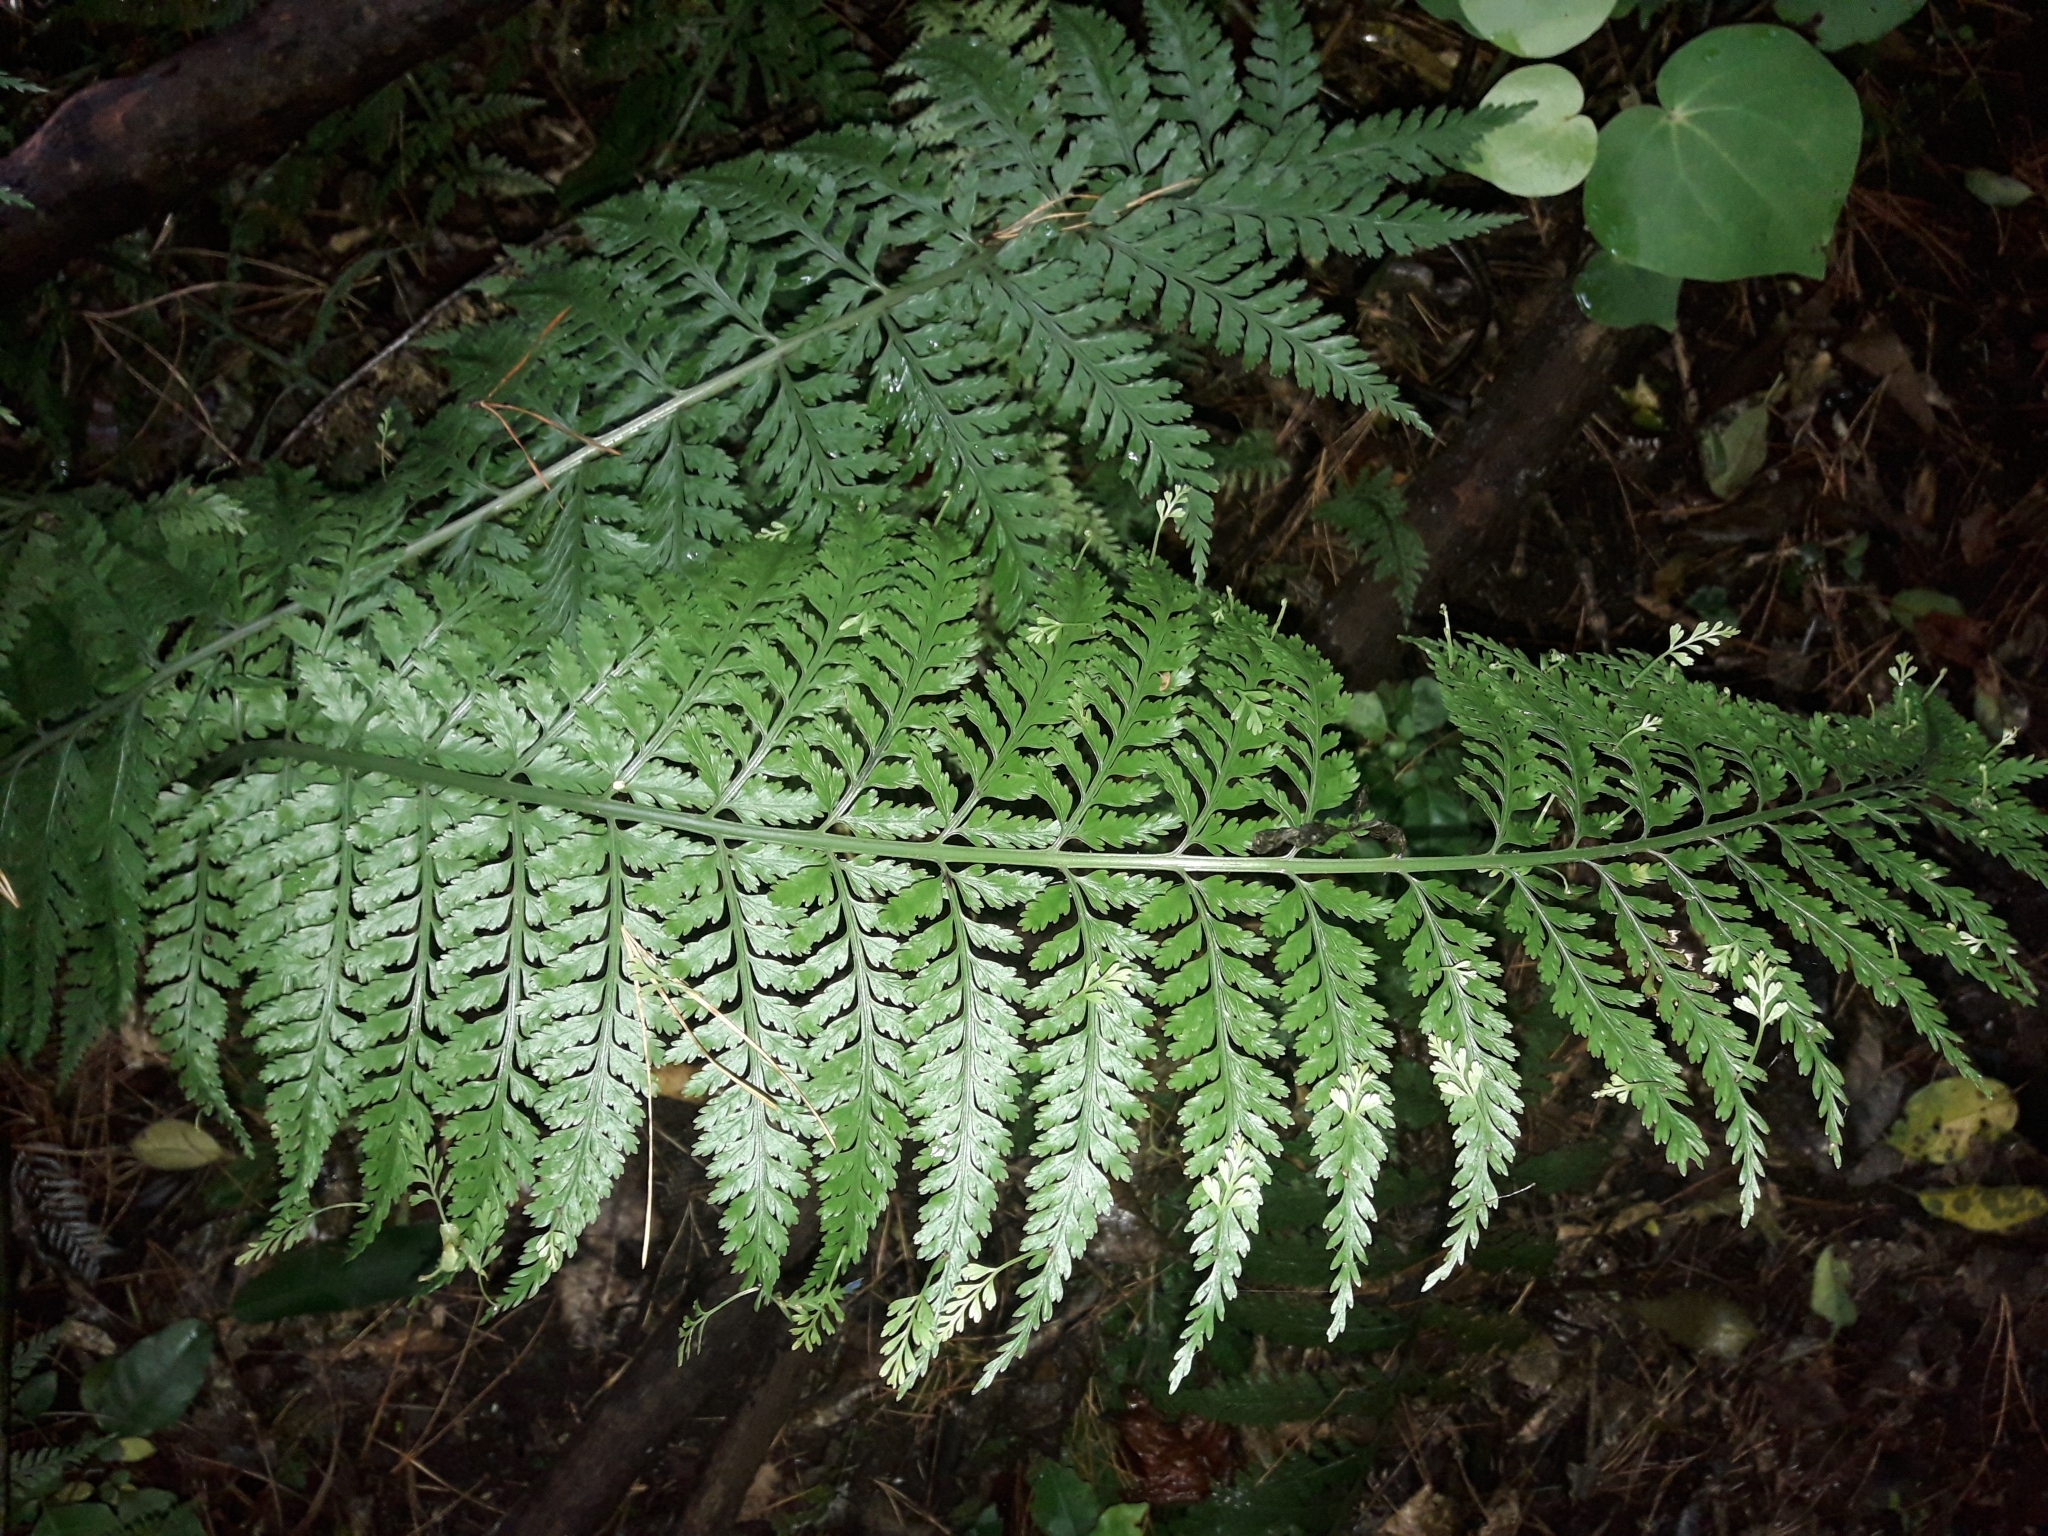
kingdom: Plantae
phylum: Tracheophyta
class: Polypodiopsida
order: Polypodiales
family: Aspleniaceae
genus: Asplenium
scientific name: Asplenium bulbiferum
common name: Mother fern
